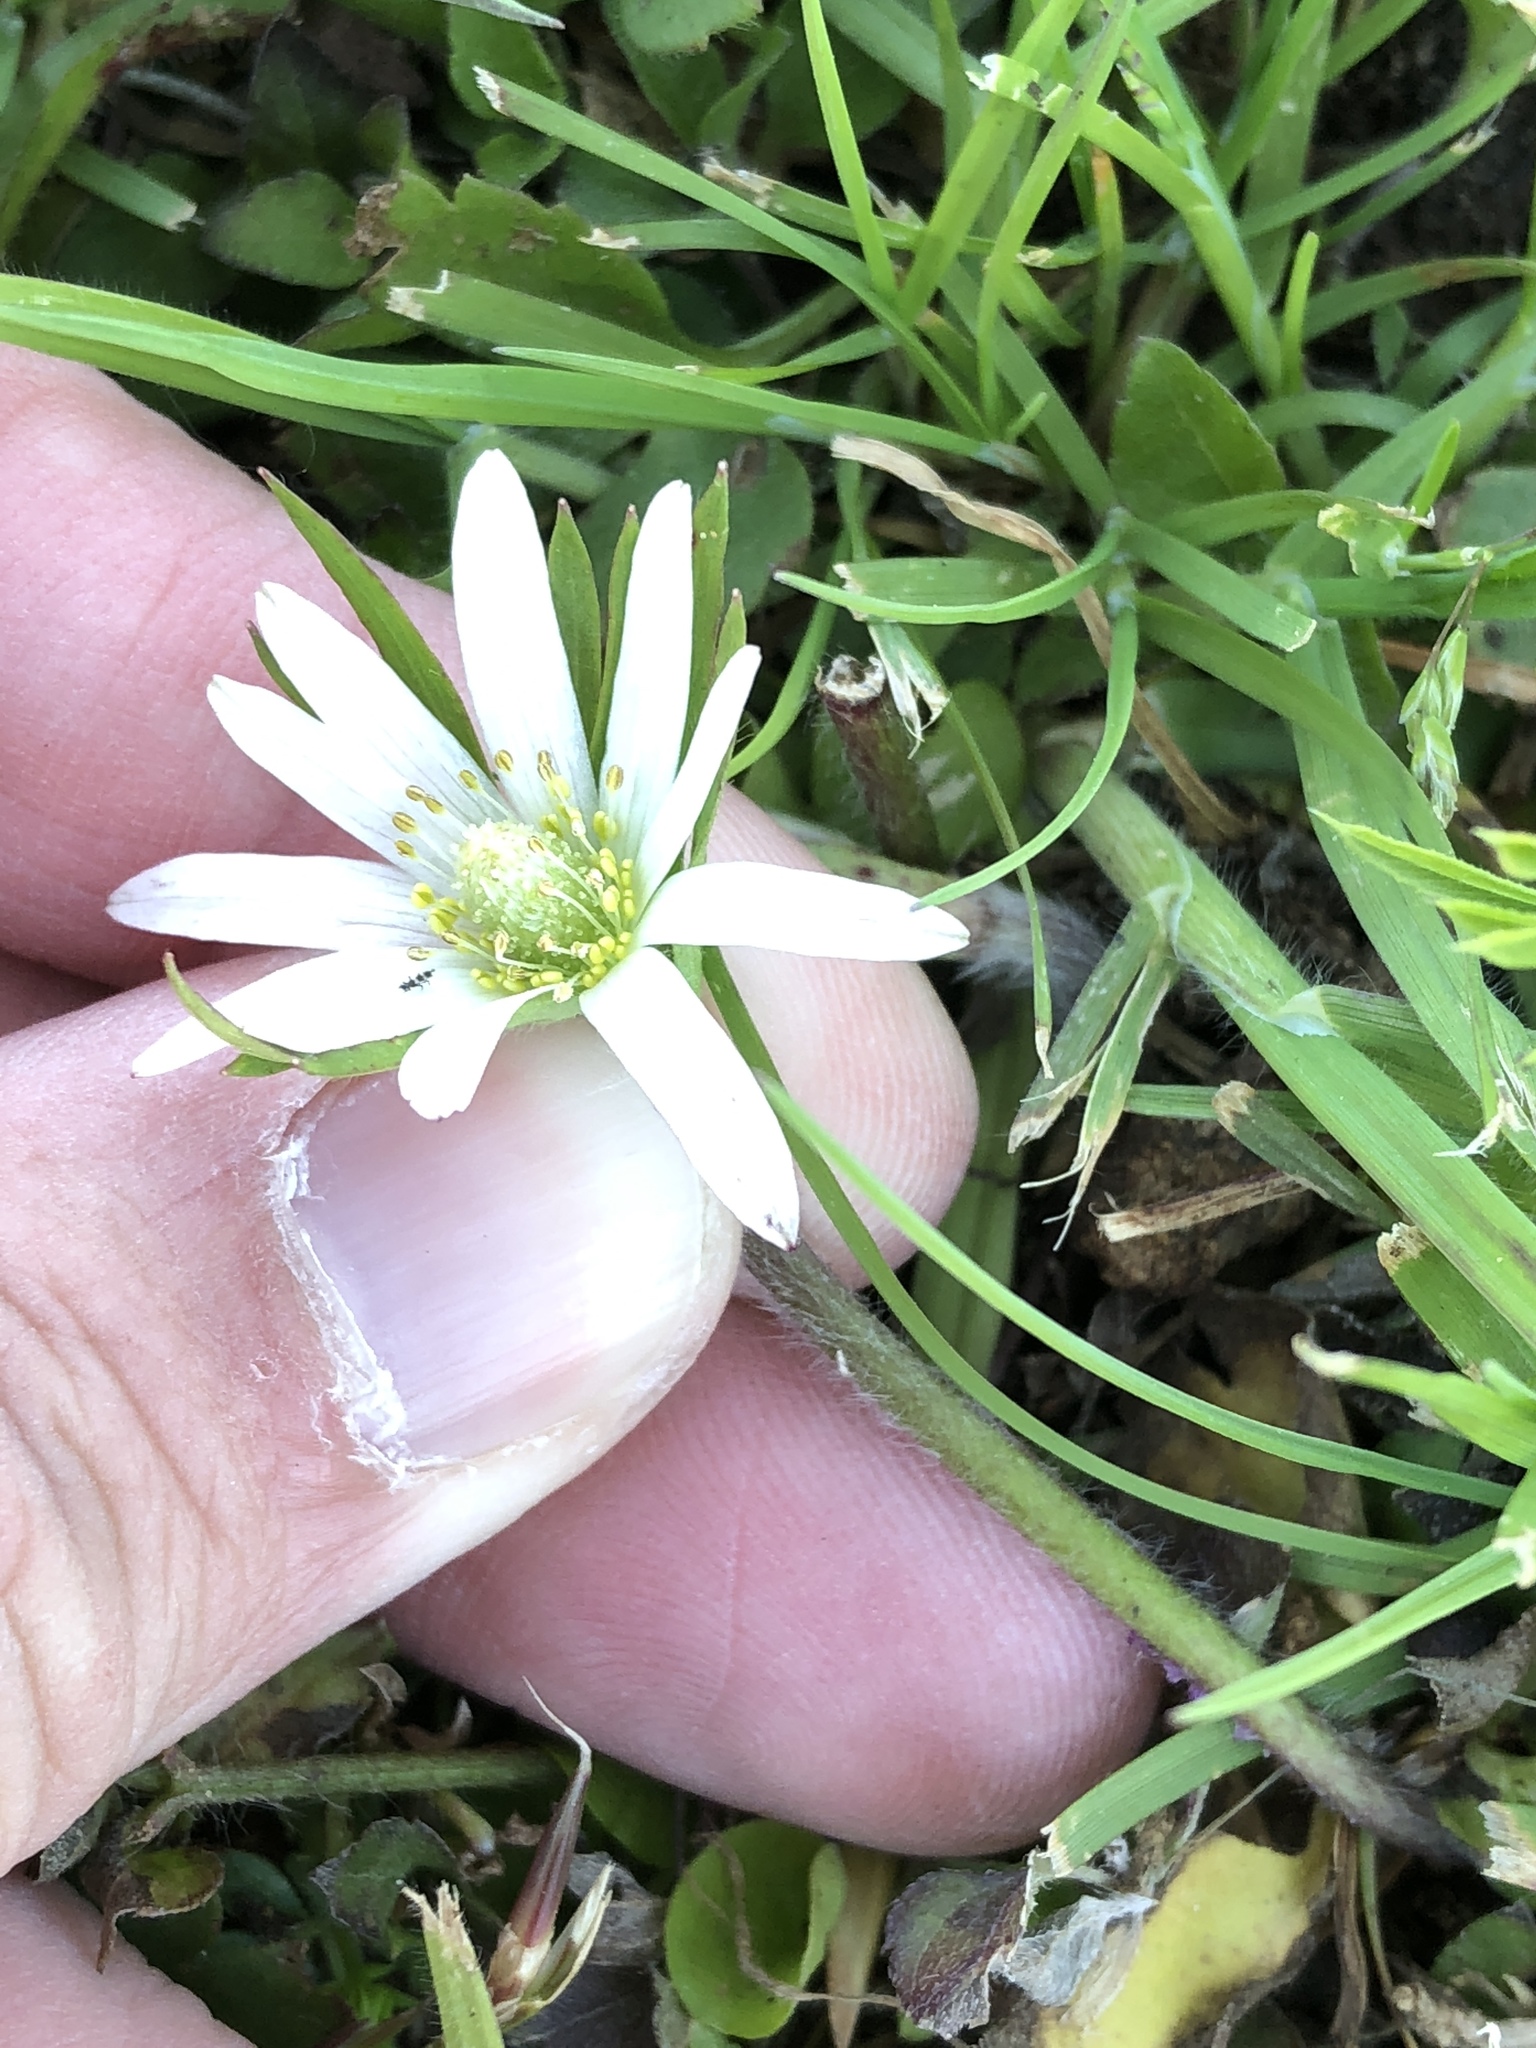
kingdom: Plantae
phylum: Tracheophyta
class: Magnoliopsida
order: Ranunculales
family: Ranunculaceae
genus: Anemone
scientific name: Anemone berlandieri
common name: Ten-petal anemone
